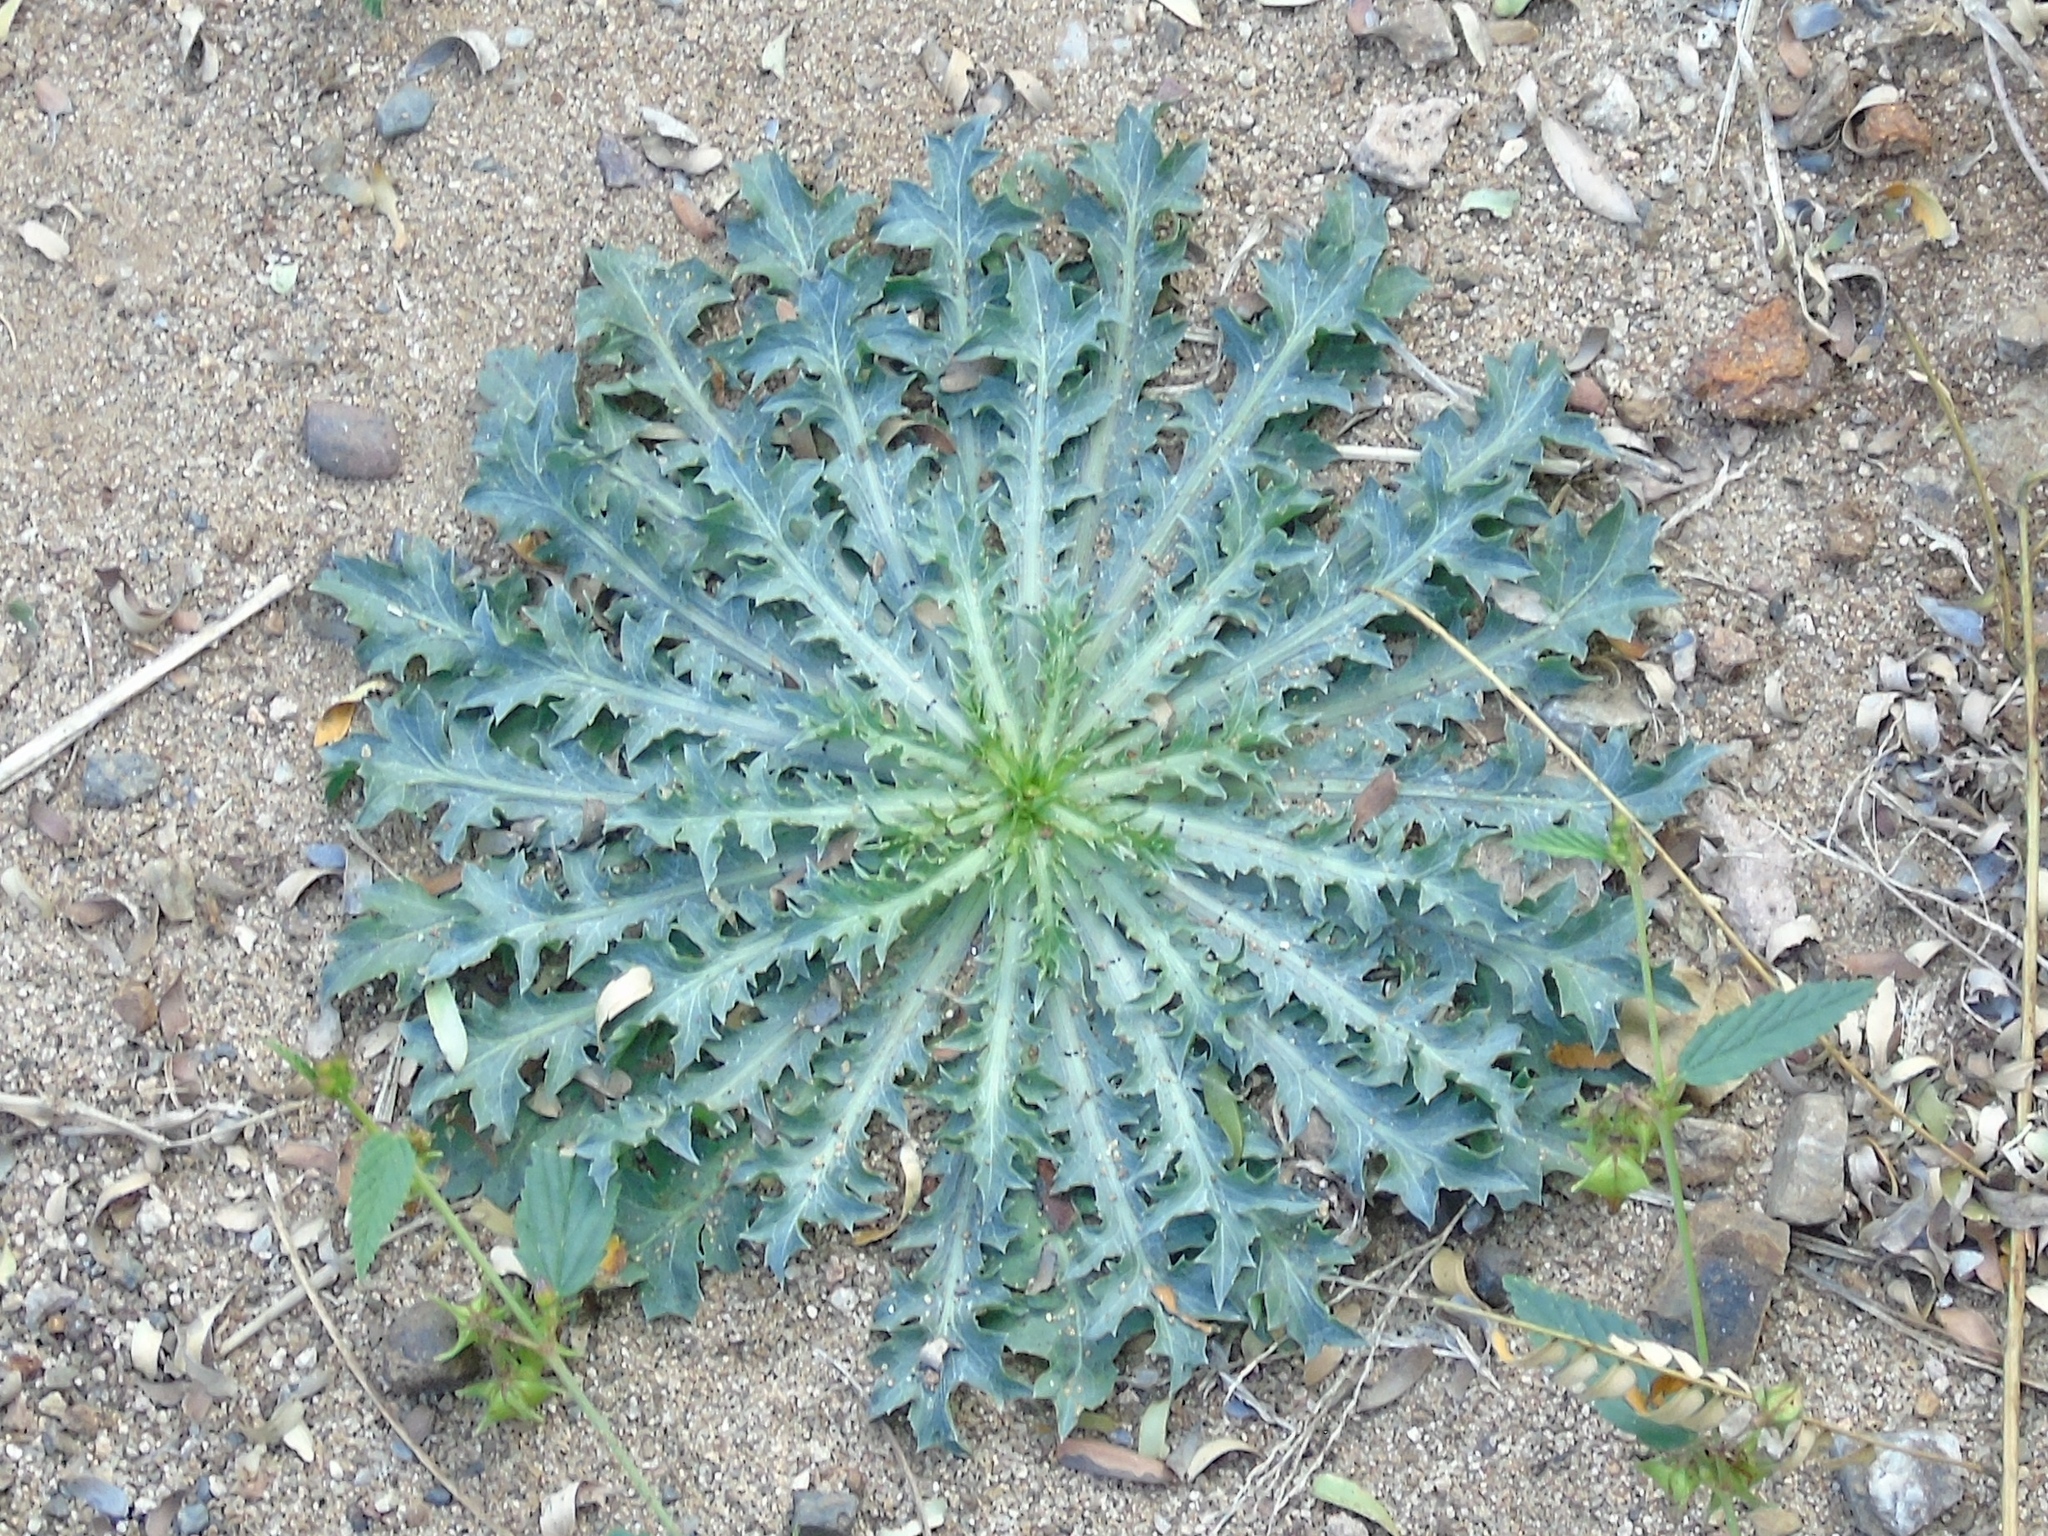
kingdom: Plantae
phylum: Tracheophyta
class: Magnoliopsida
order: Ranunculales
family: Papaveraceae
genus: Argemone
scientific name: Argemone
